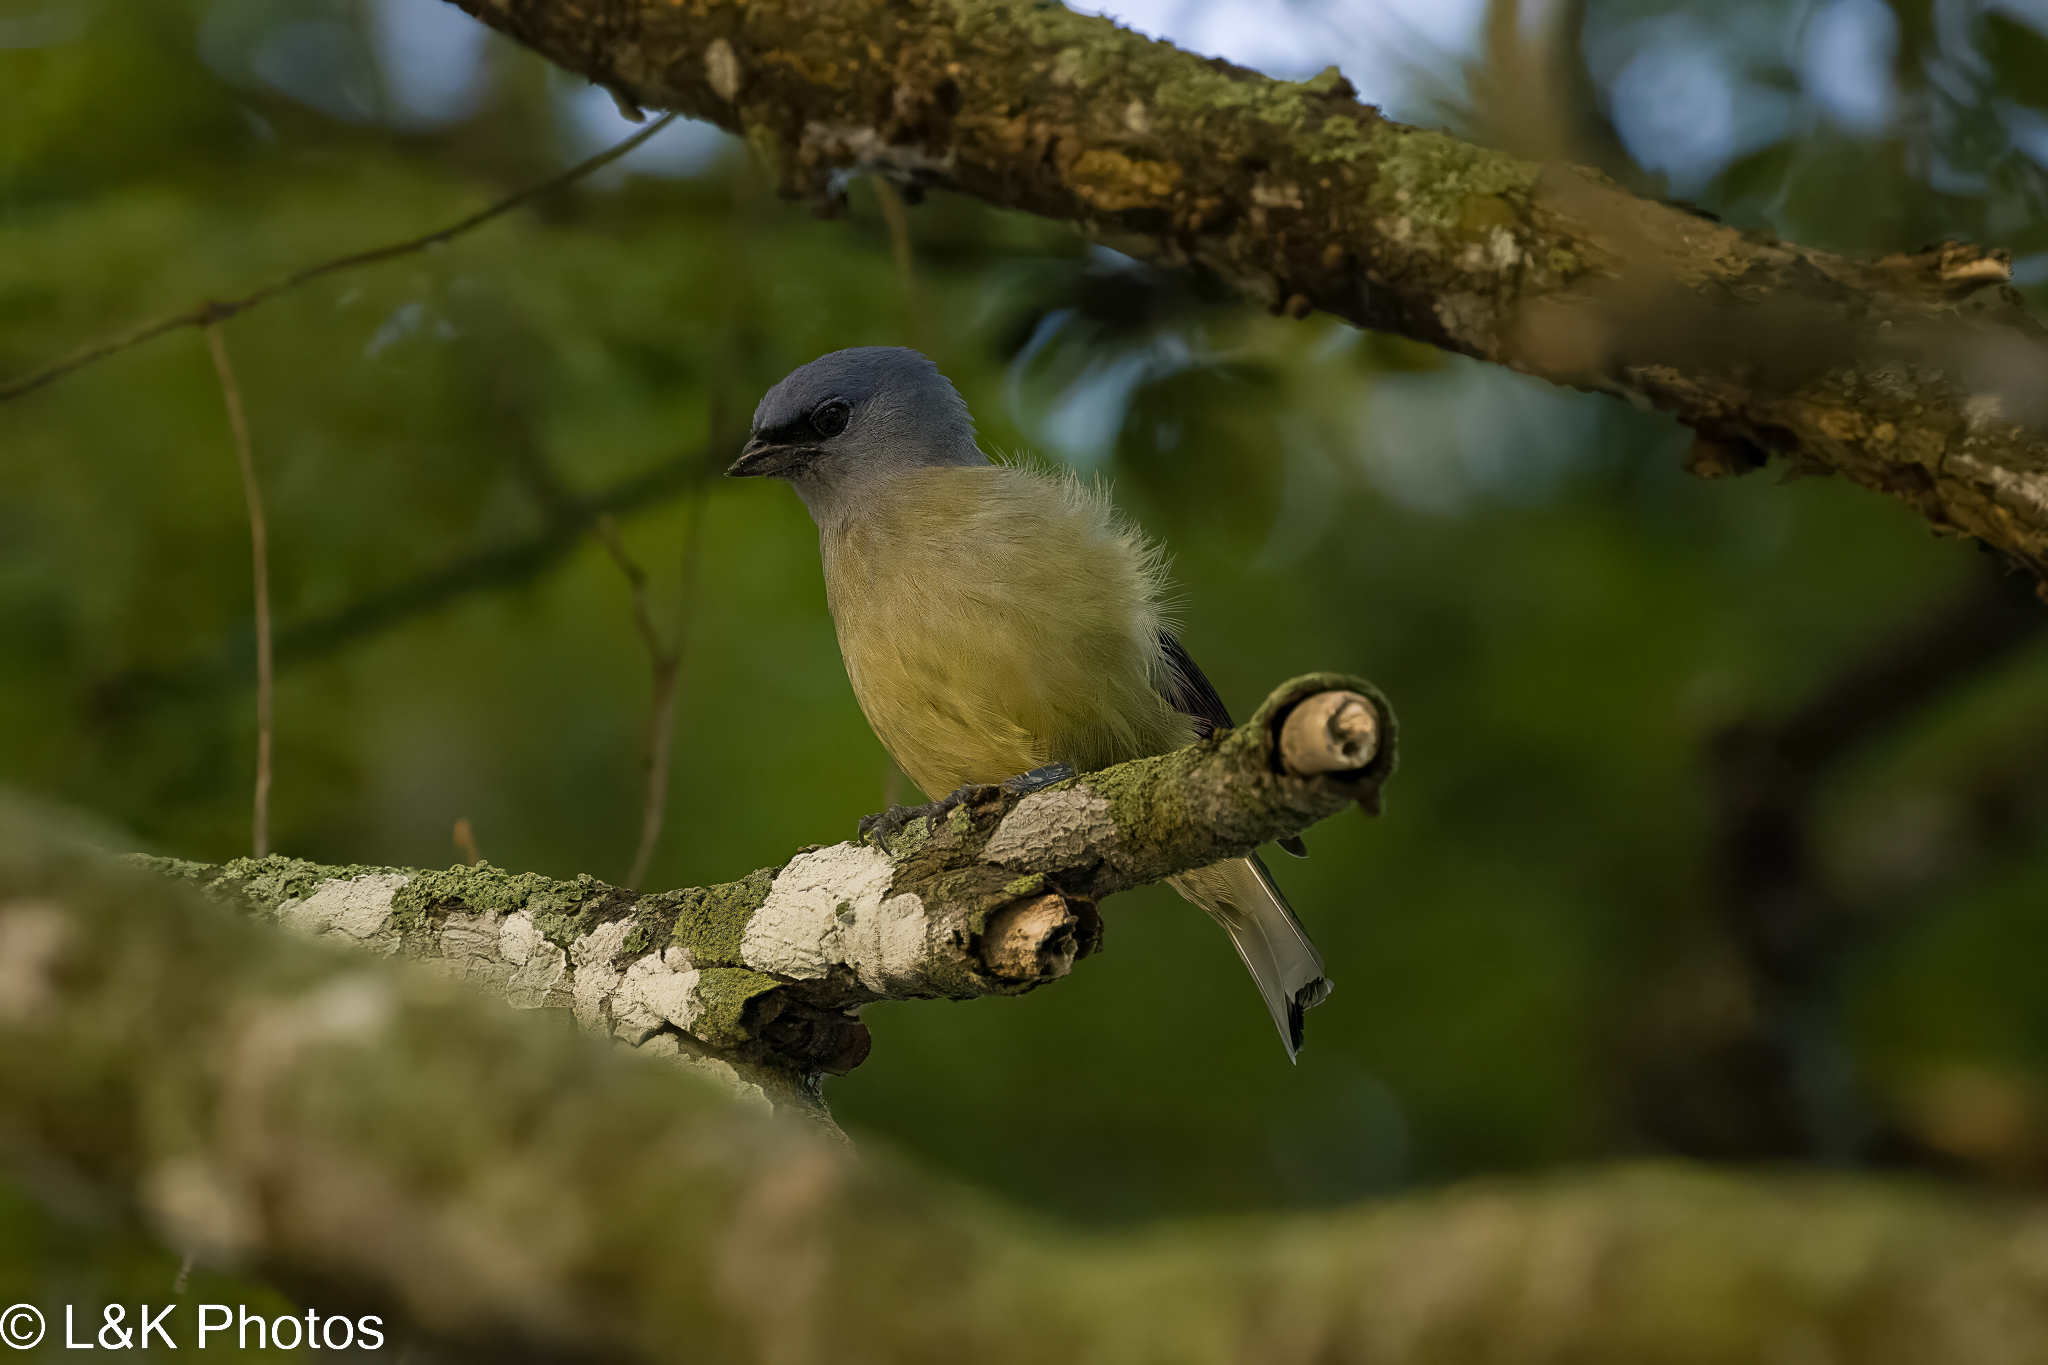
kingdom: Animalia
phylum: Chordata
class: Aves
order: Passeriformes
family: Thraupidae
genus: Thraupis
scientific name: Thraupis abbas
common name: Yellow-winged tanager
